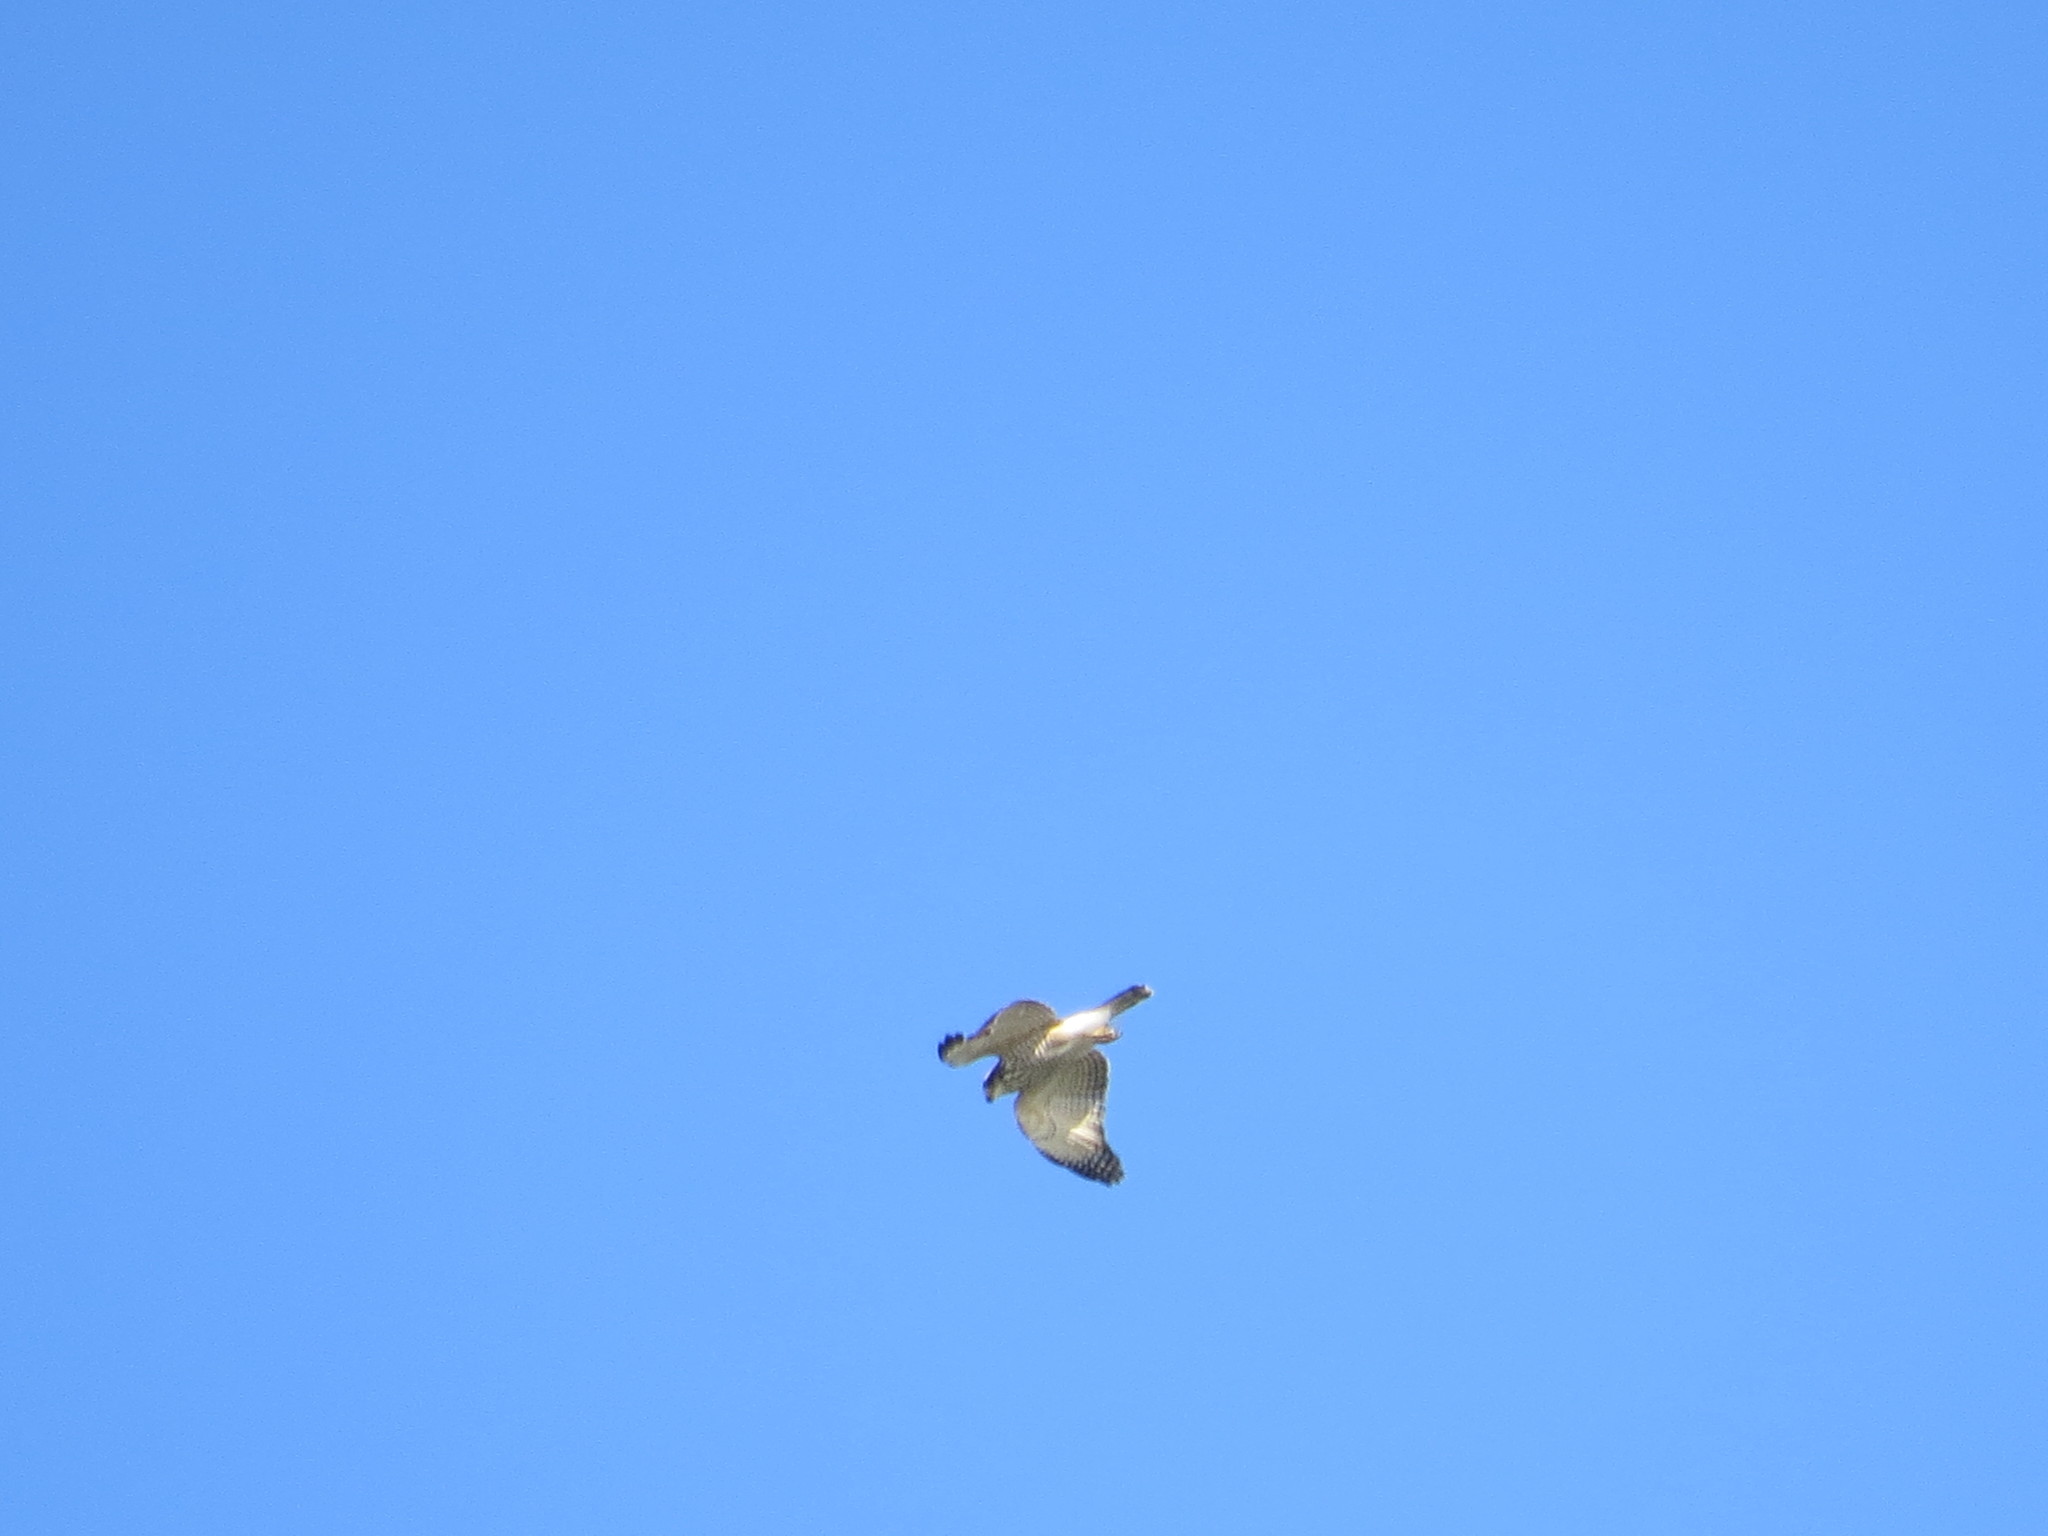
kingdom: Animalia
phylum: Chordata
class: Aves
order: Accipitriformes
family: Accipitridae
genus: Rupornis
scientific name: Rupornis magnirostris
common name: Roadside hawk
